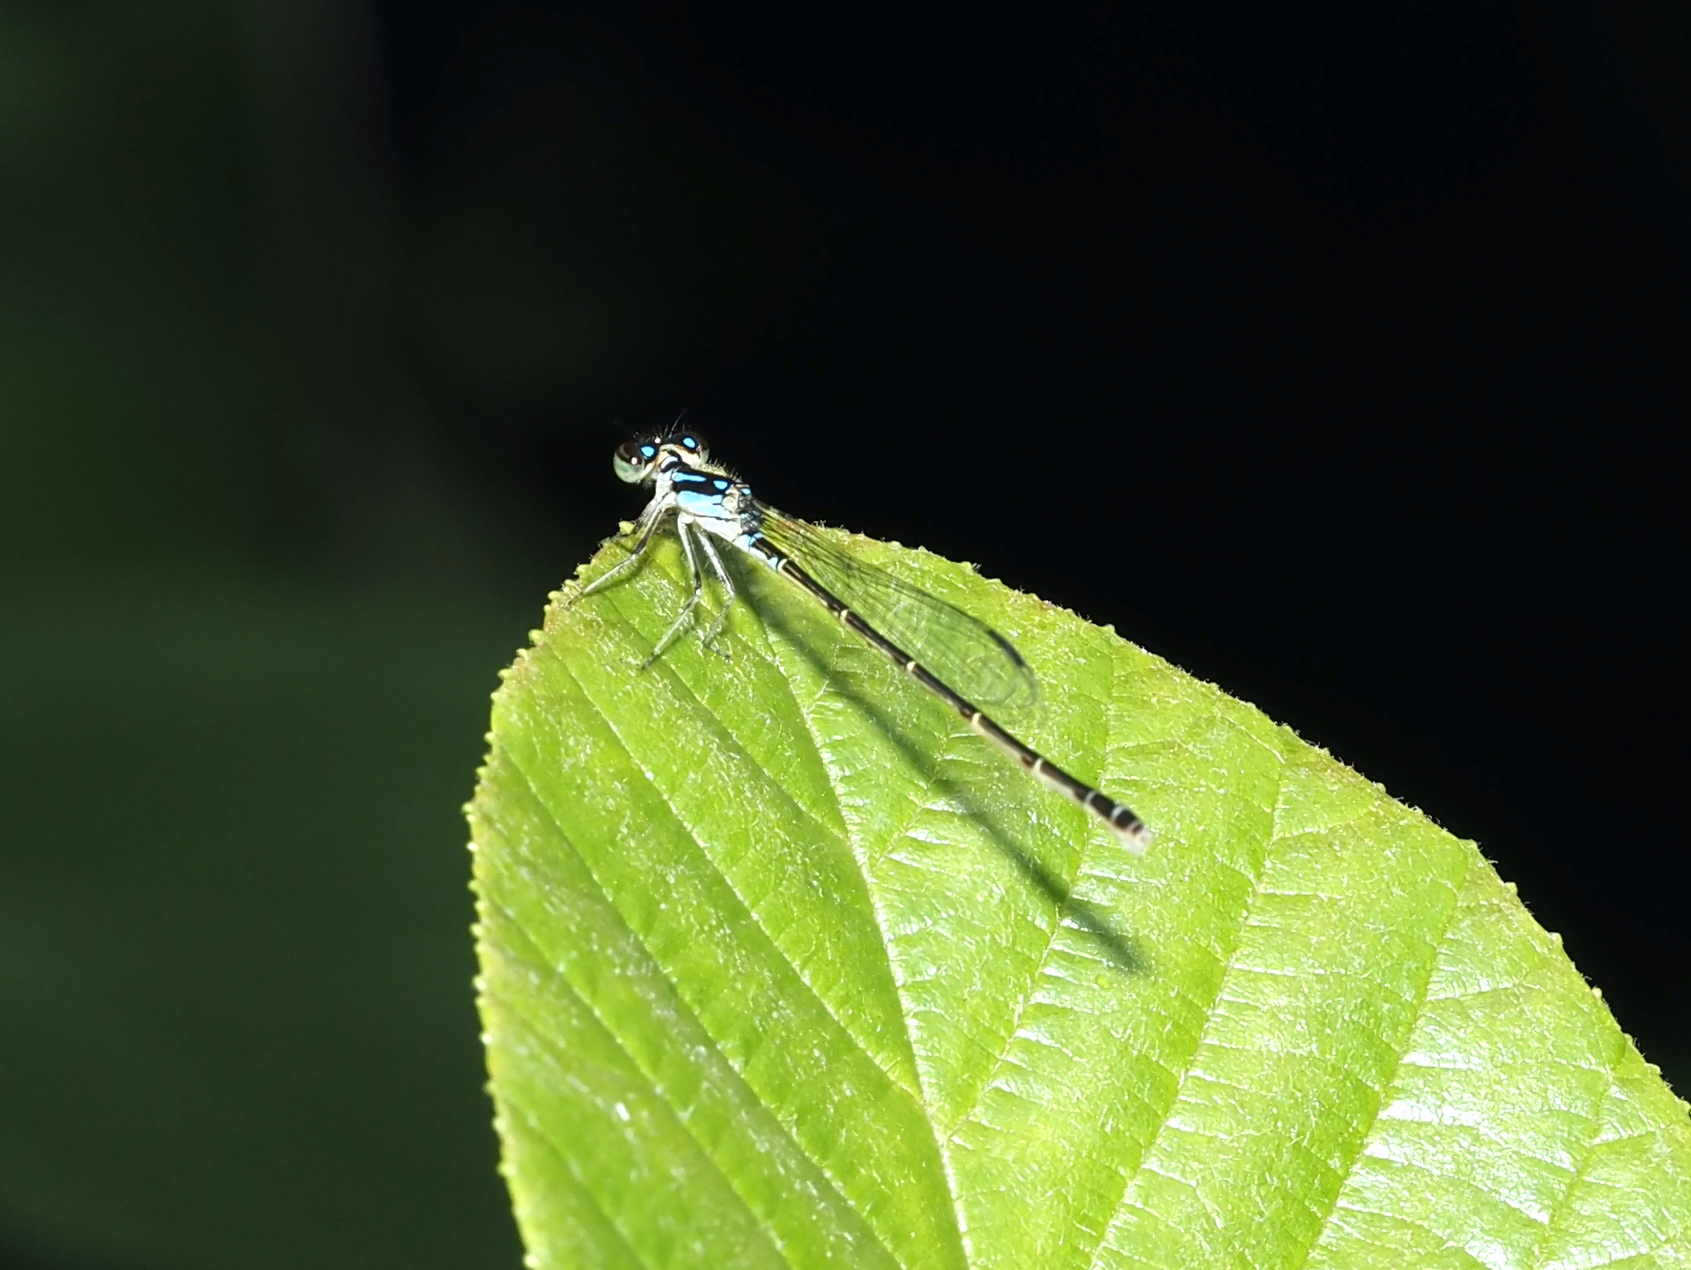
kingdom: Animalia
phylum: Arthropoda
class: Insecta
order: Odonata
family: Coenagrionidae
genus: Ischnura
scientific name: Ischnura posita
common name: Fragile forktail
